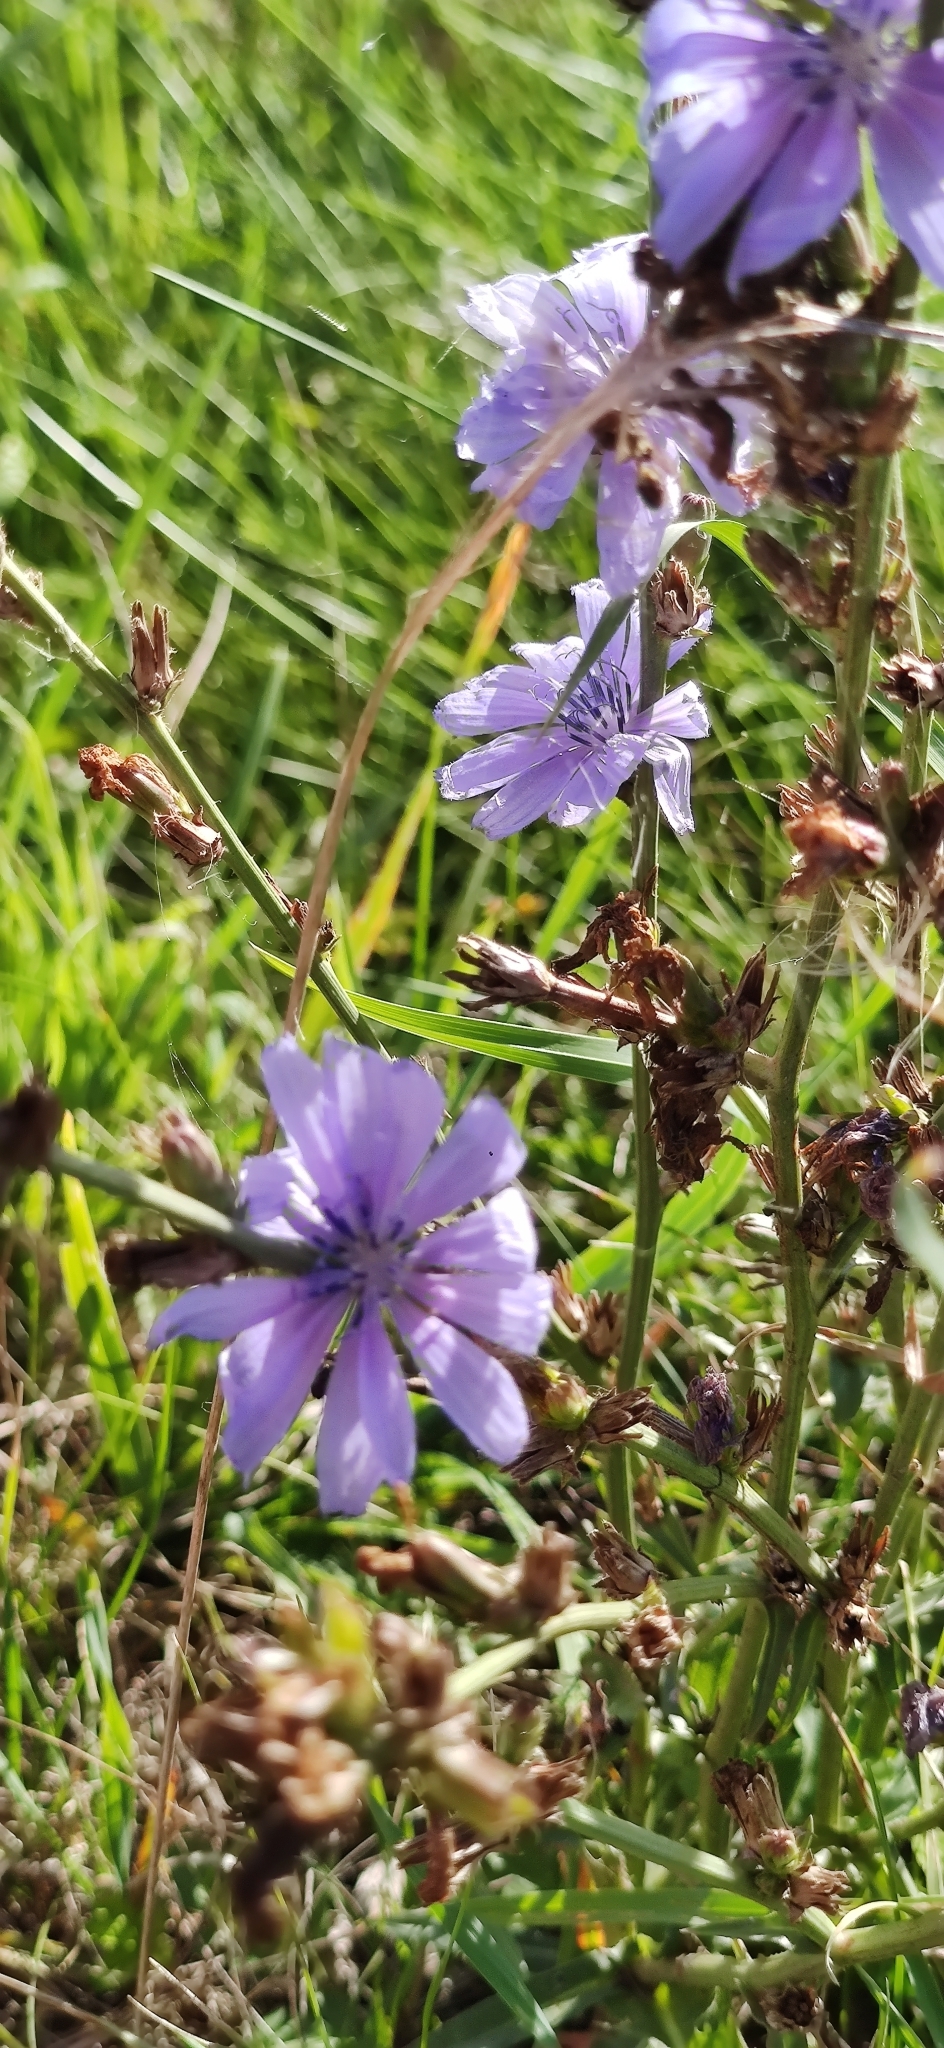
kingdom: Plantae
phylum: Tracheophyta
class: Magnoliopsida
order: Asterales
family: Asteraceae
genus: Cichorium
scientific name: Cichorium intybus
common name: Chicory
